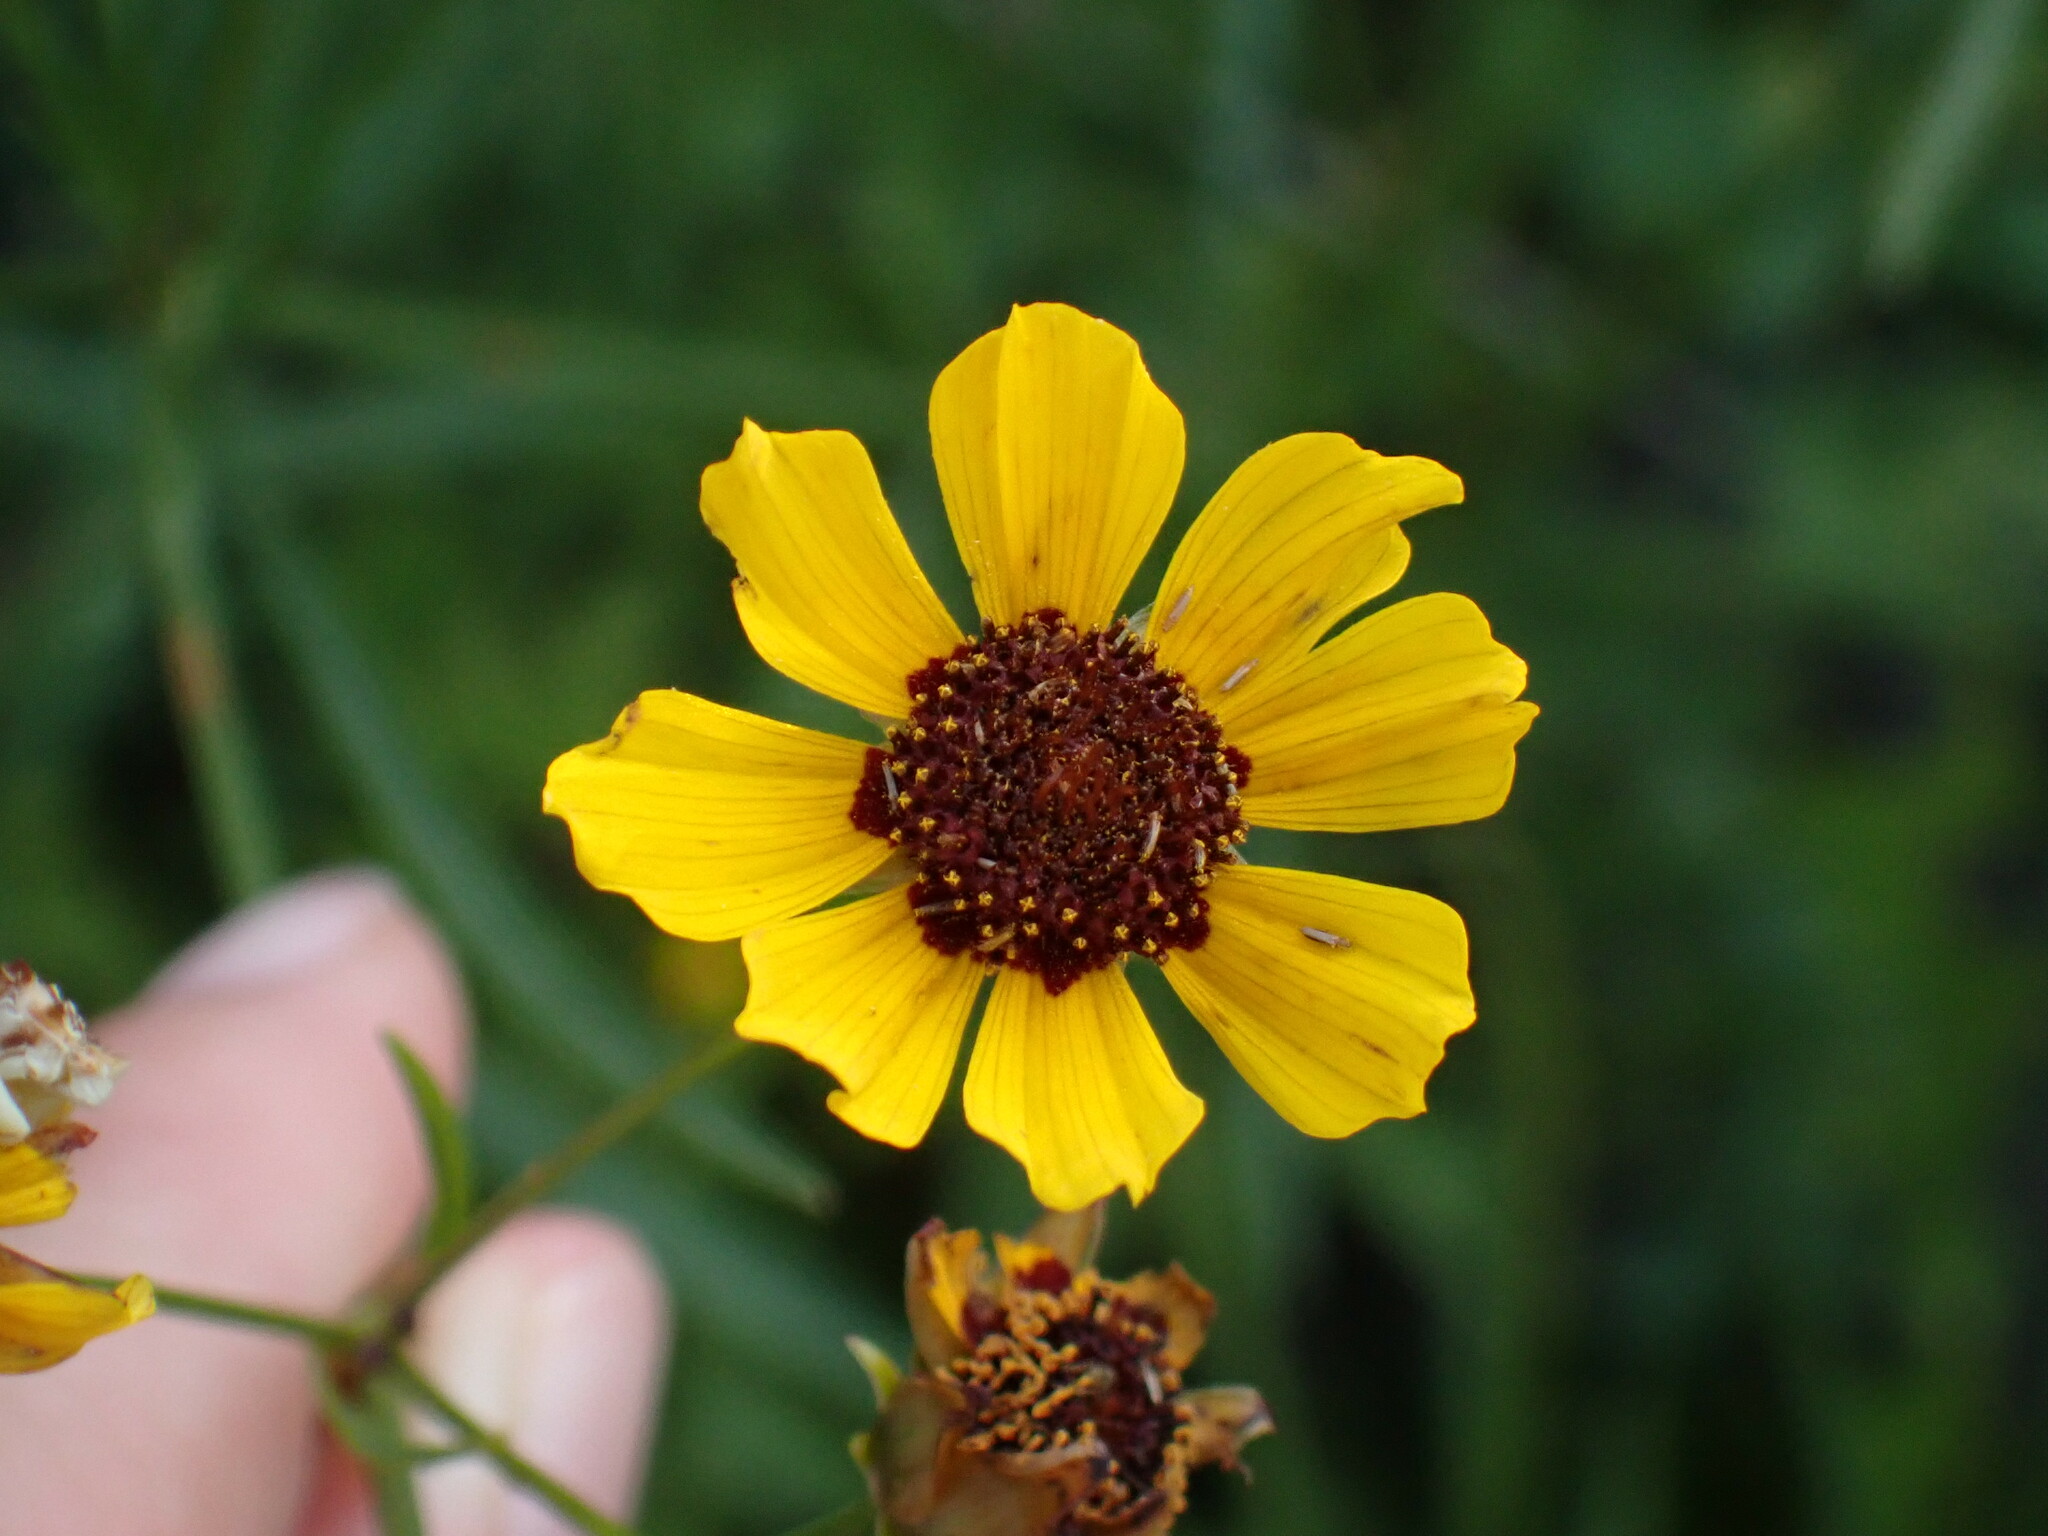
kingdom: Plantae
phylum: Tracheophyta
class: Magnoliopsida
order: Asterales
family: Asteraceae
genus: Coreopsis
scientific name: Coreopsis tinctoria
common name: Garden tickseed
